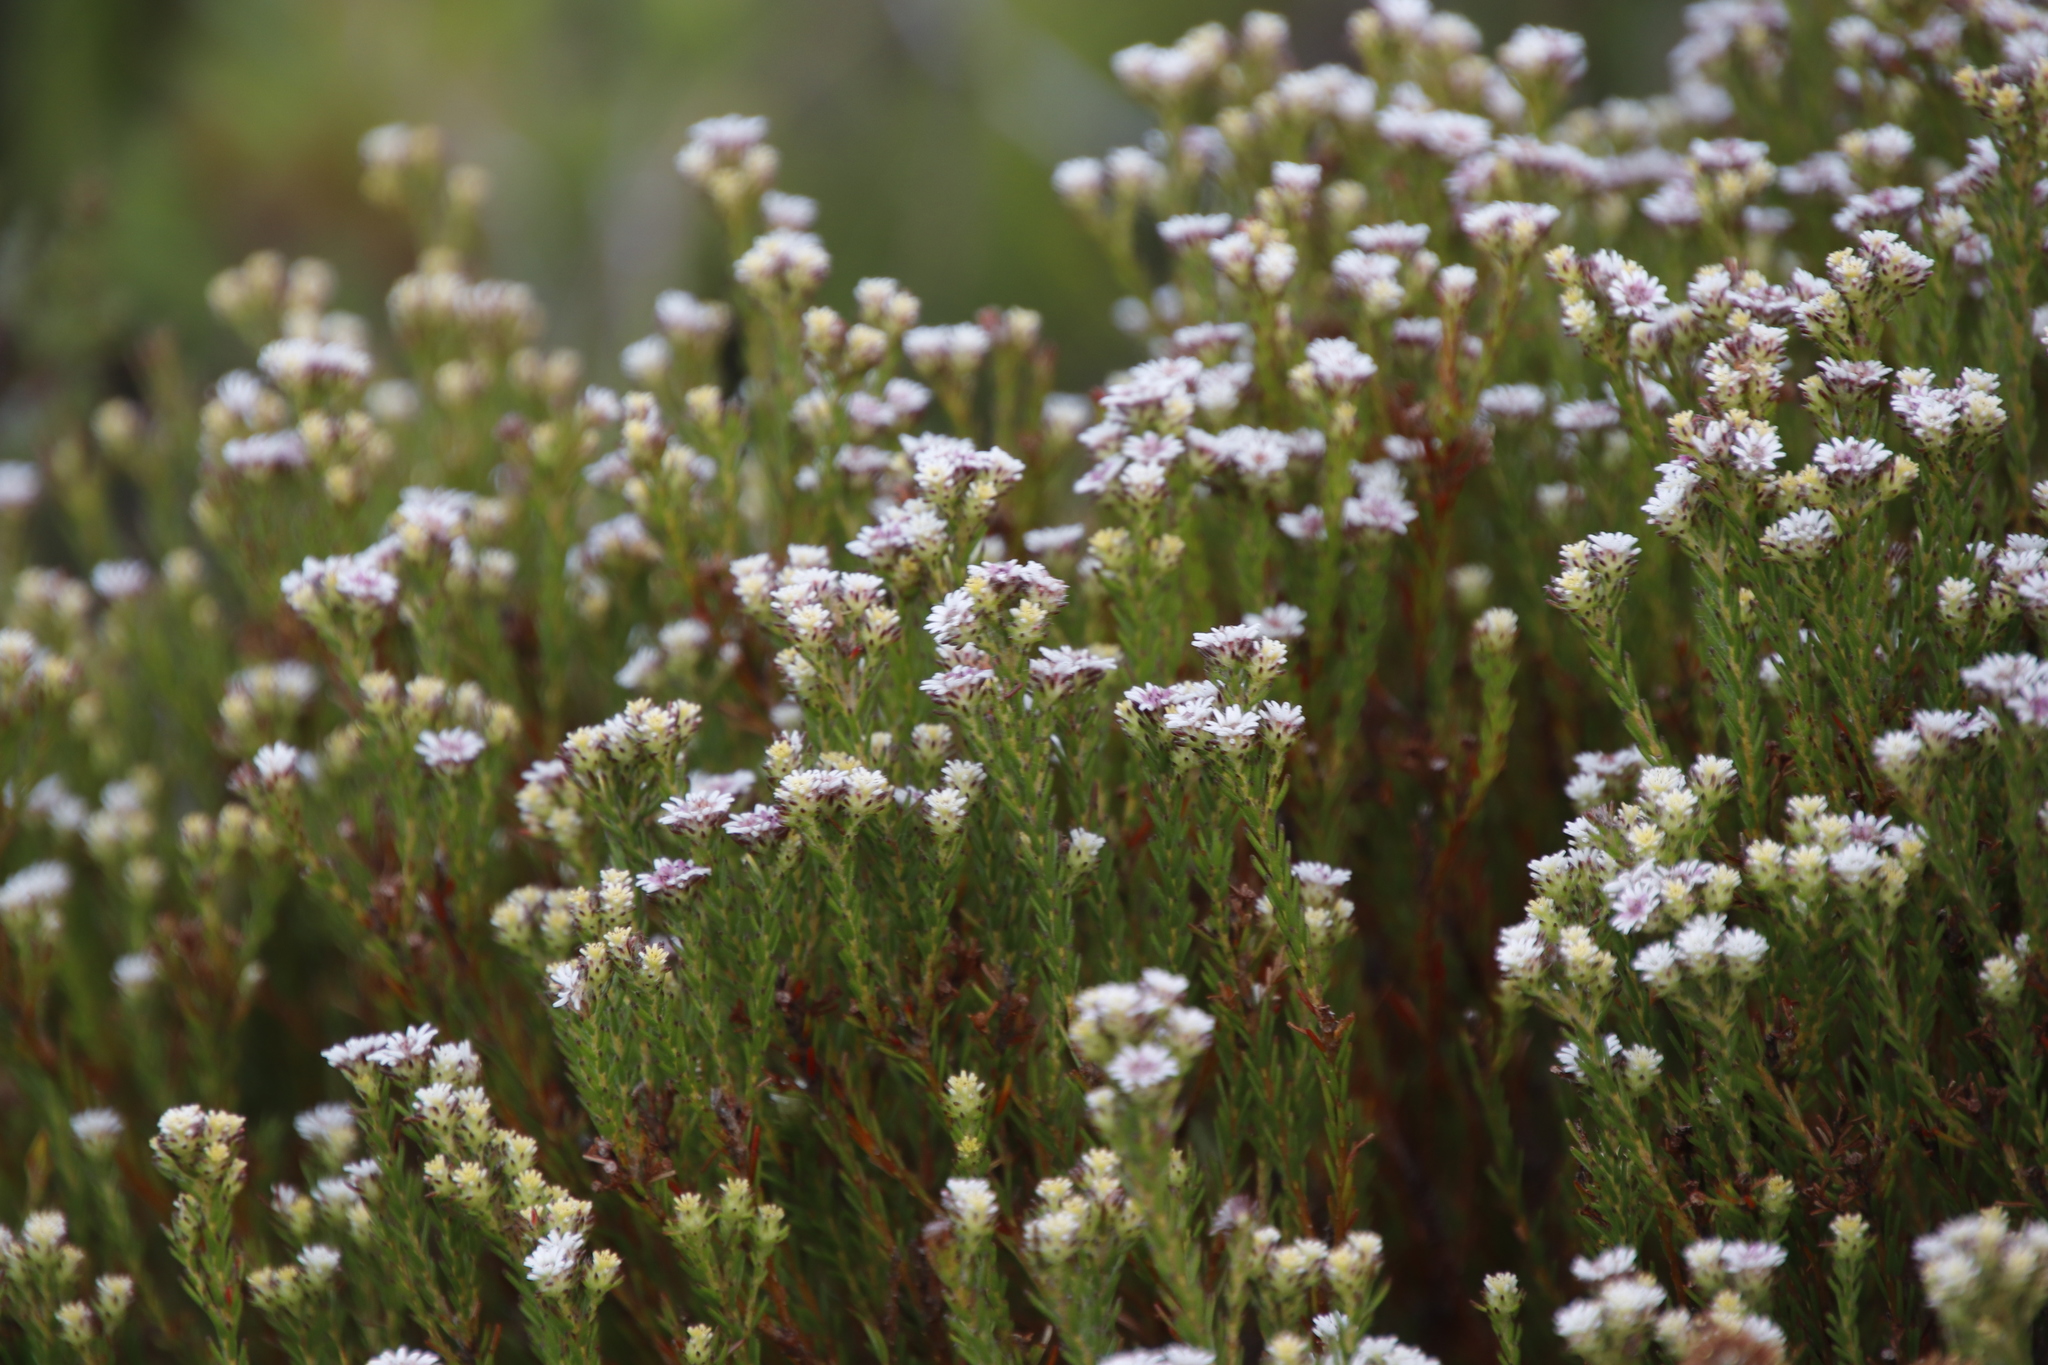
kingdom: Plantae
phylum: Tracheophyta
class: Magnoliopsida
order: Bruniales
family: Bruniaceae
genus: Staavia
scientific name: Staavia radiata
